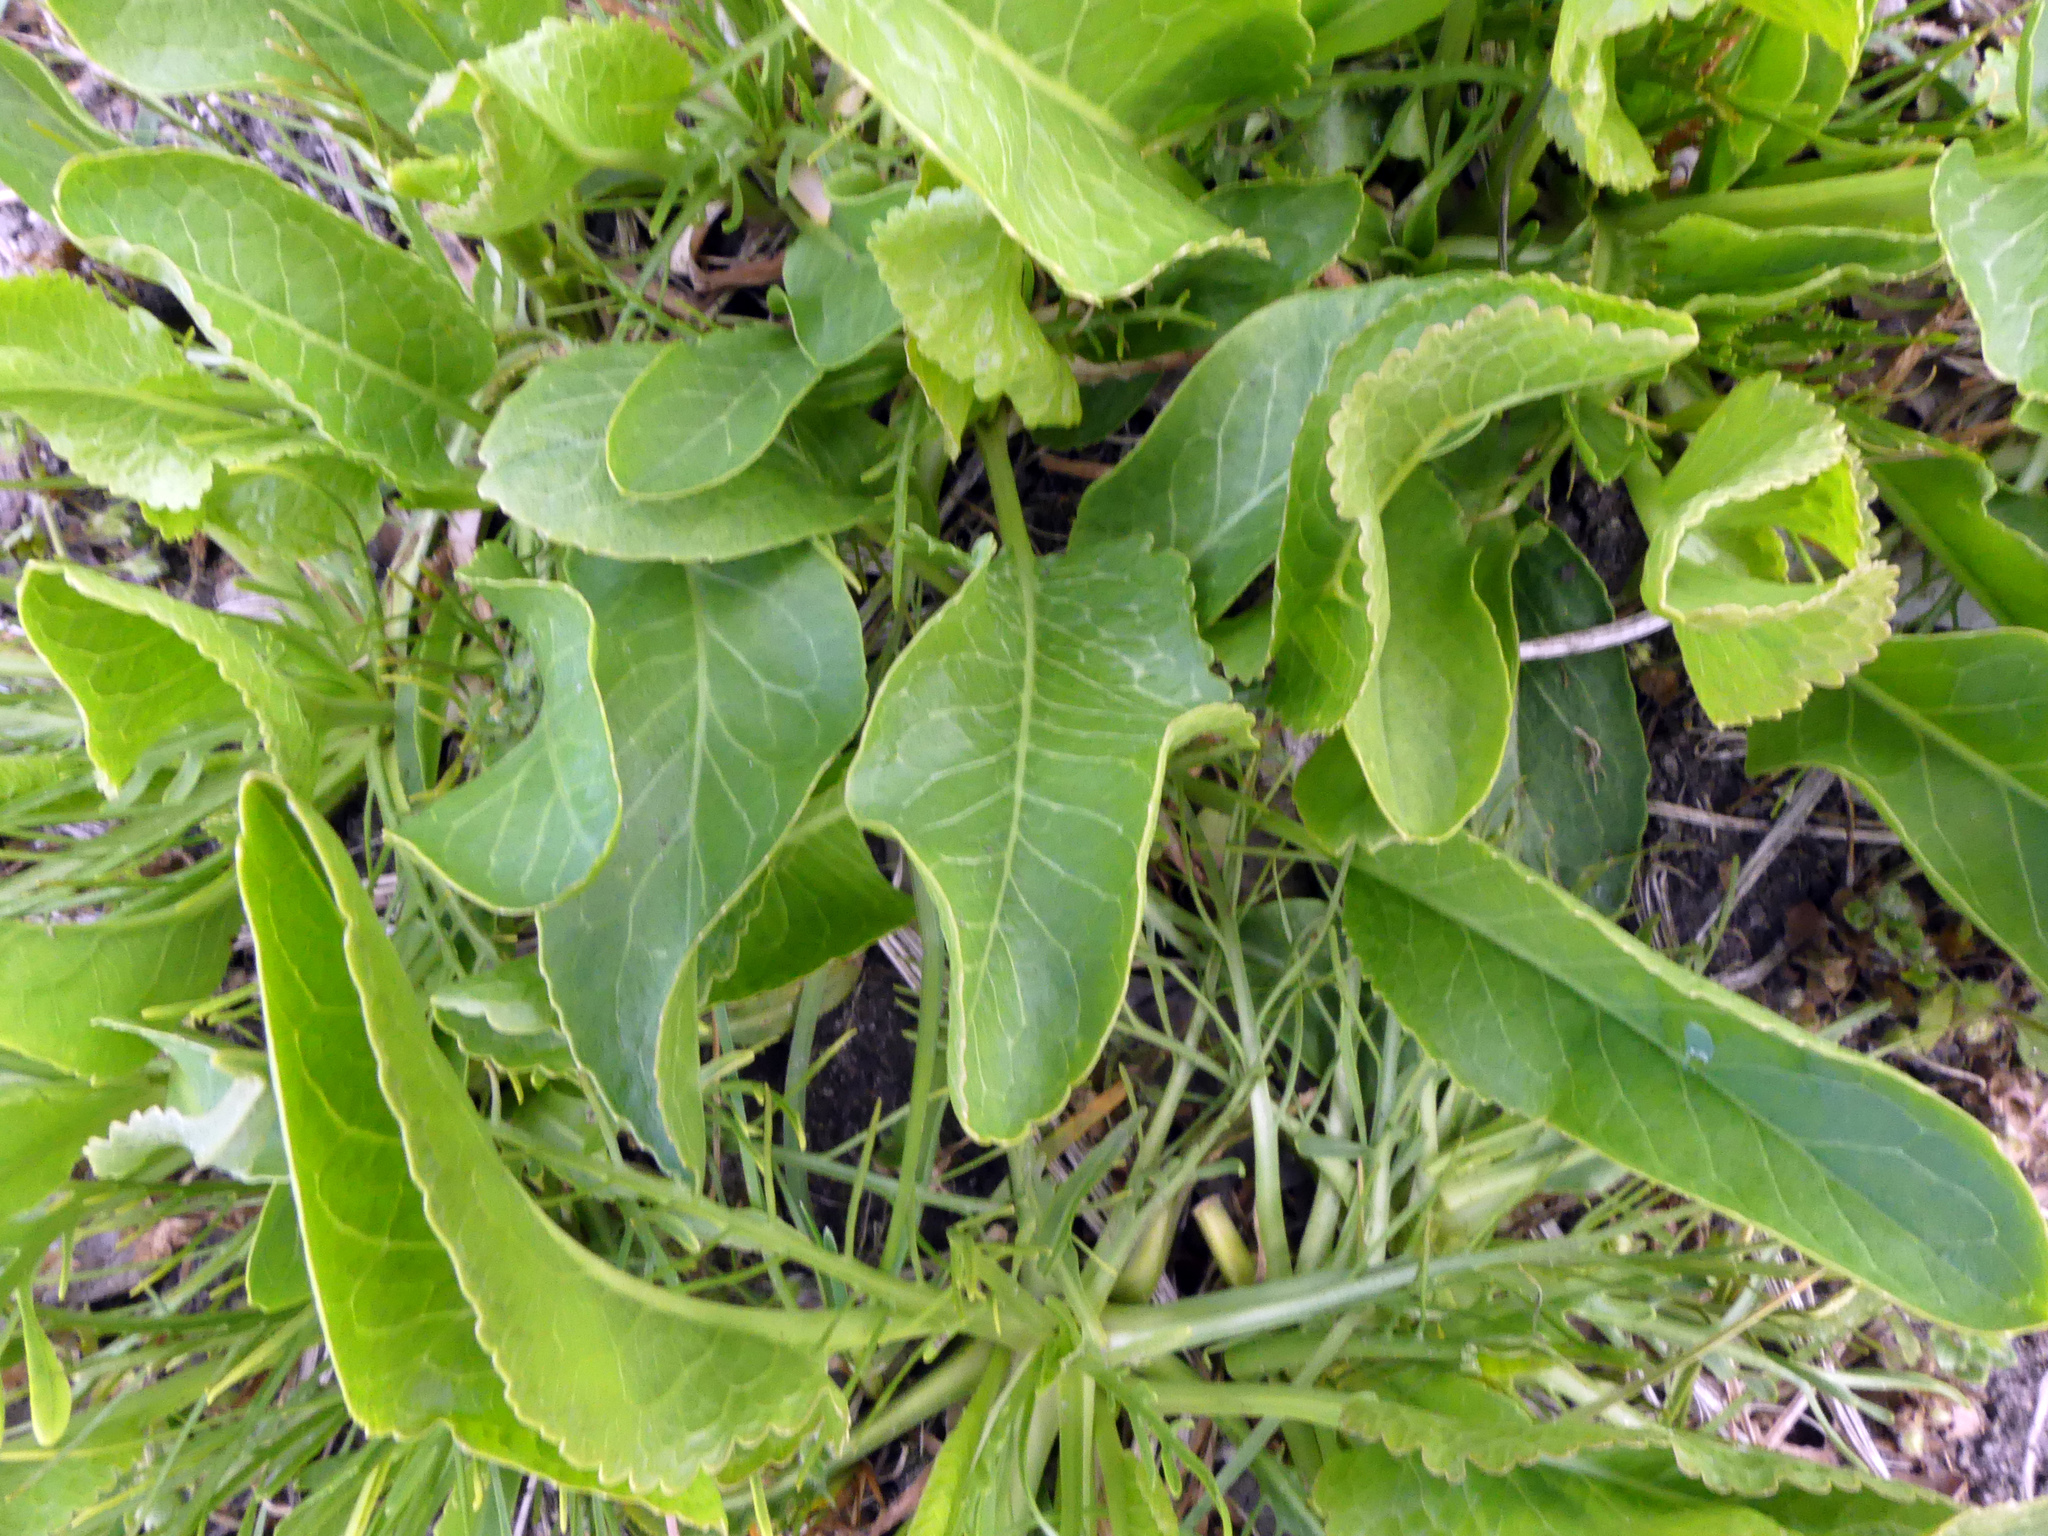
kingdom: Plantae
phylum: Tracheophyta
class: Magnoliopsida
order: Brassicales
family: Brassicaceae
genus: Armoracia
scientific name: Armoracia rusticana
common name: Horseradish
